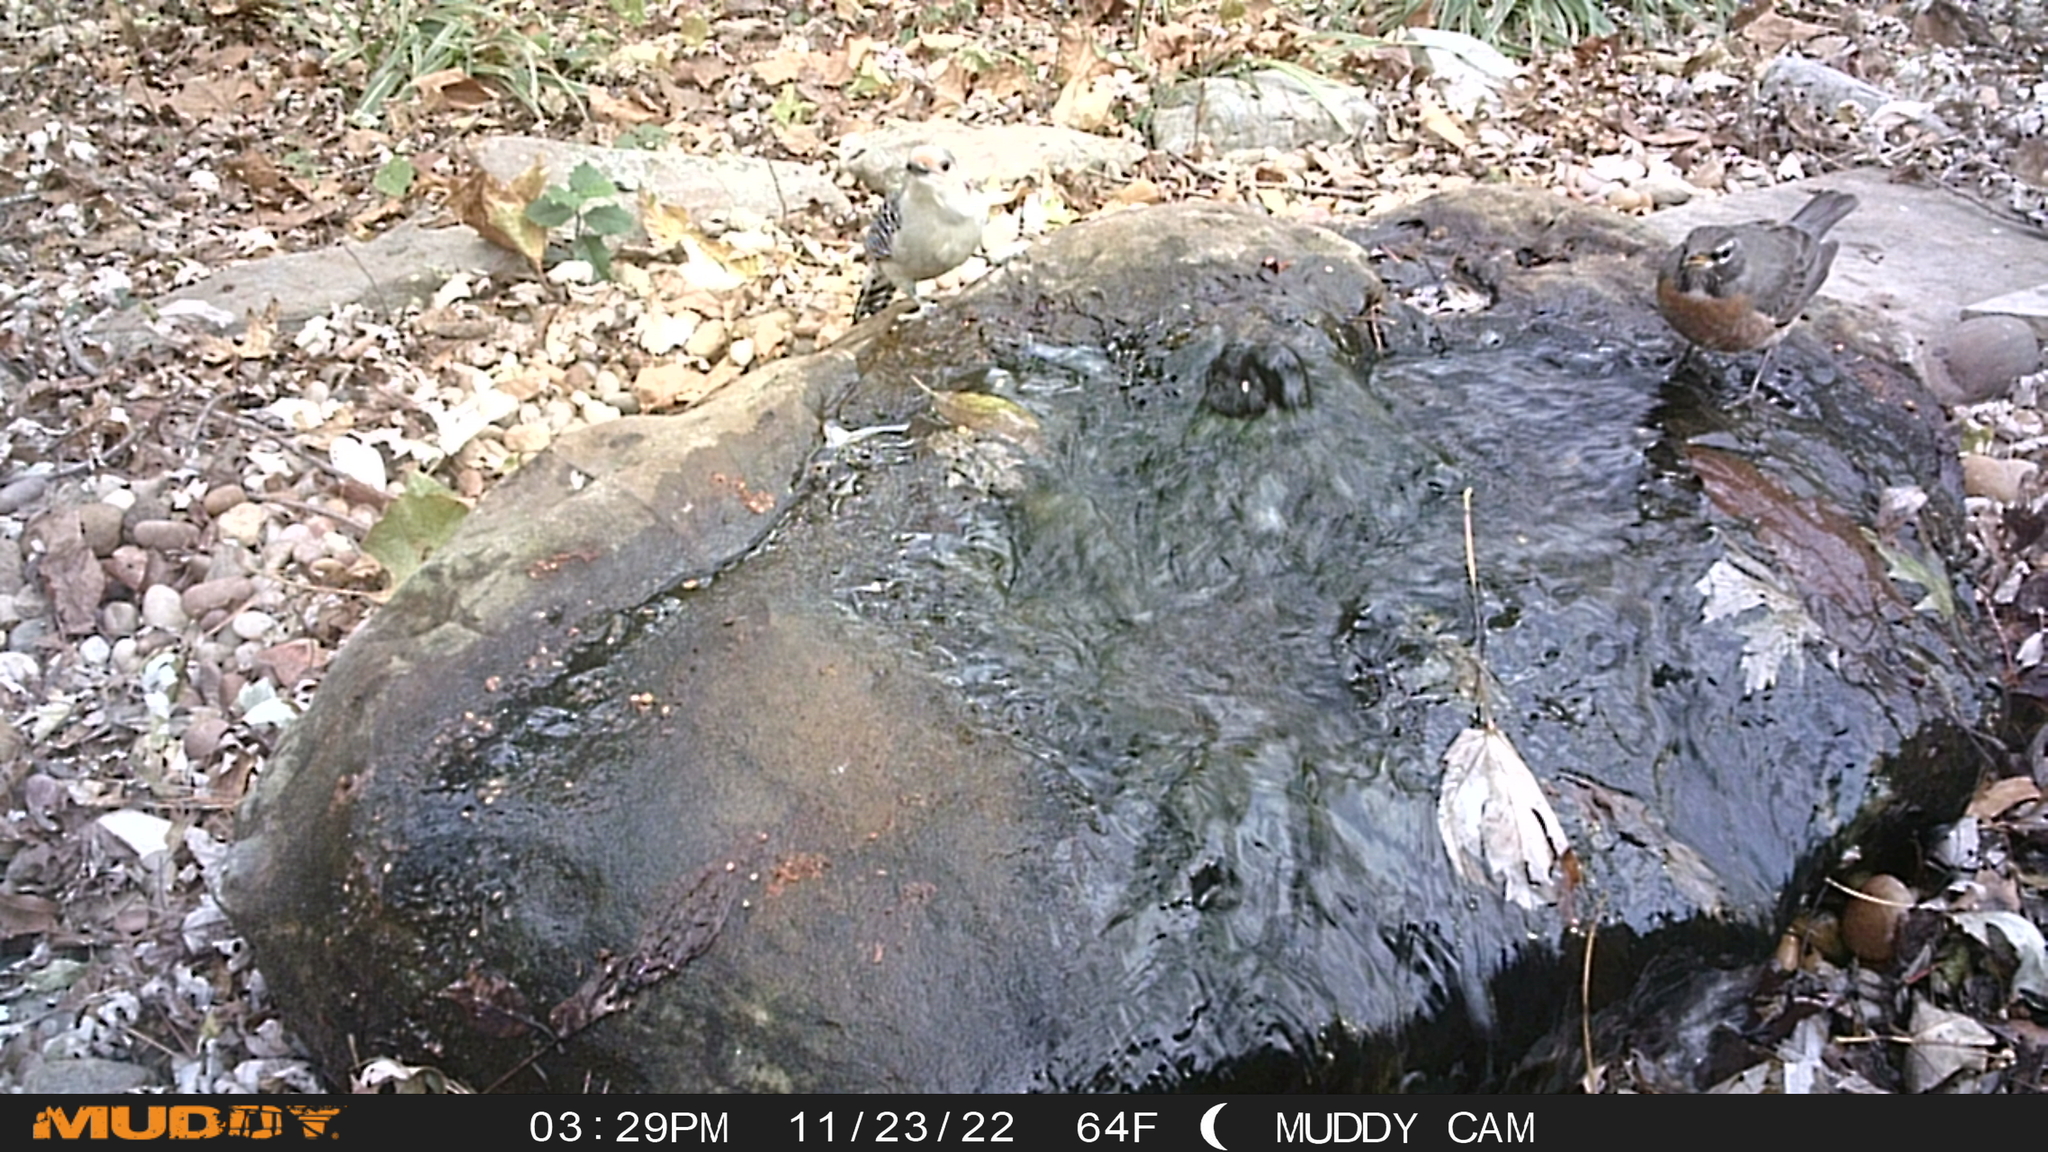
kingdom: Animalia
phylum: Chordata
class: Aves
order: Piciformes
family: Picidae
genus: Melanerpes
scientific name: Melanerpes carolinus
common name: Red-bellied woodpecker
